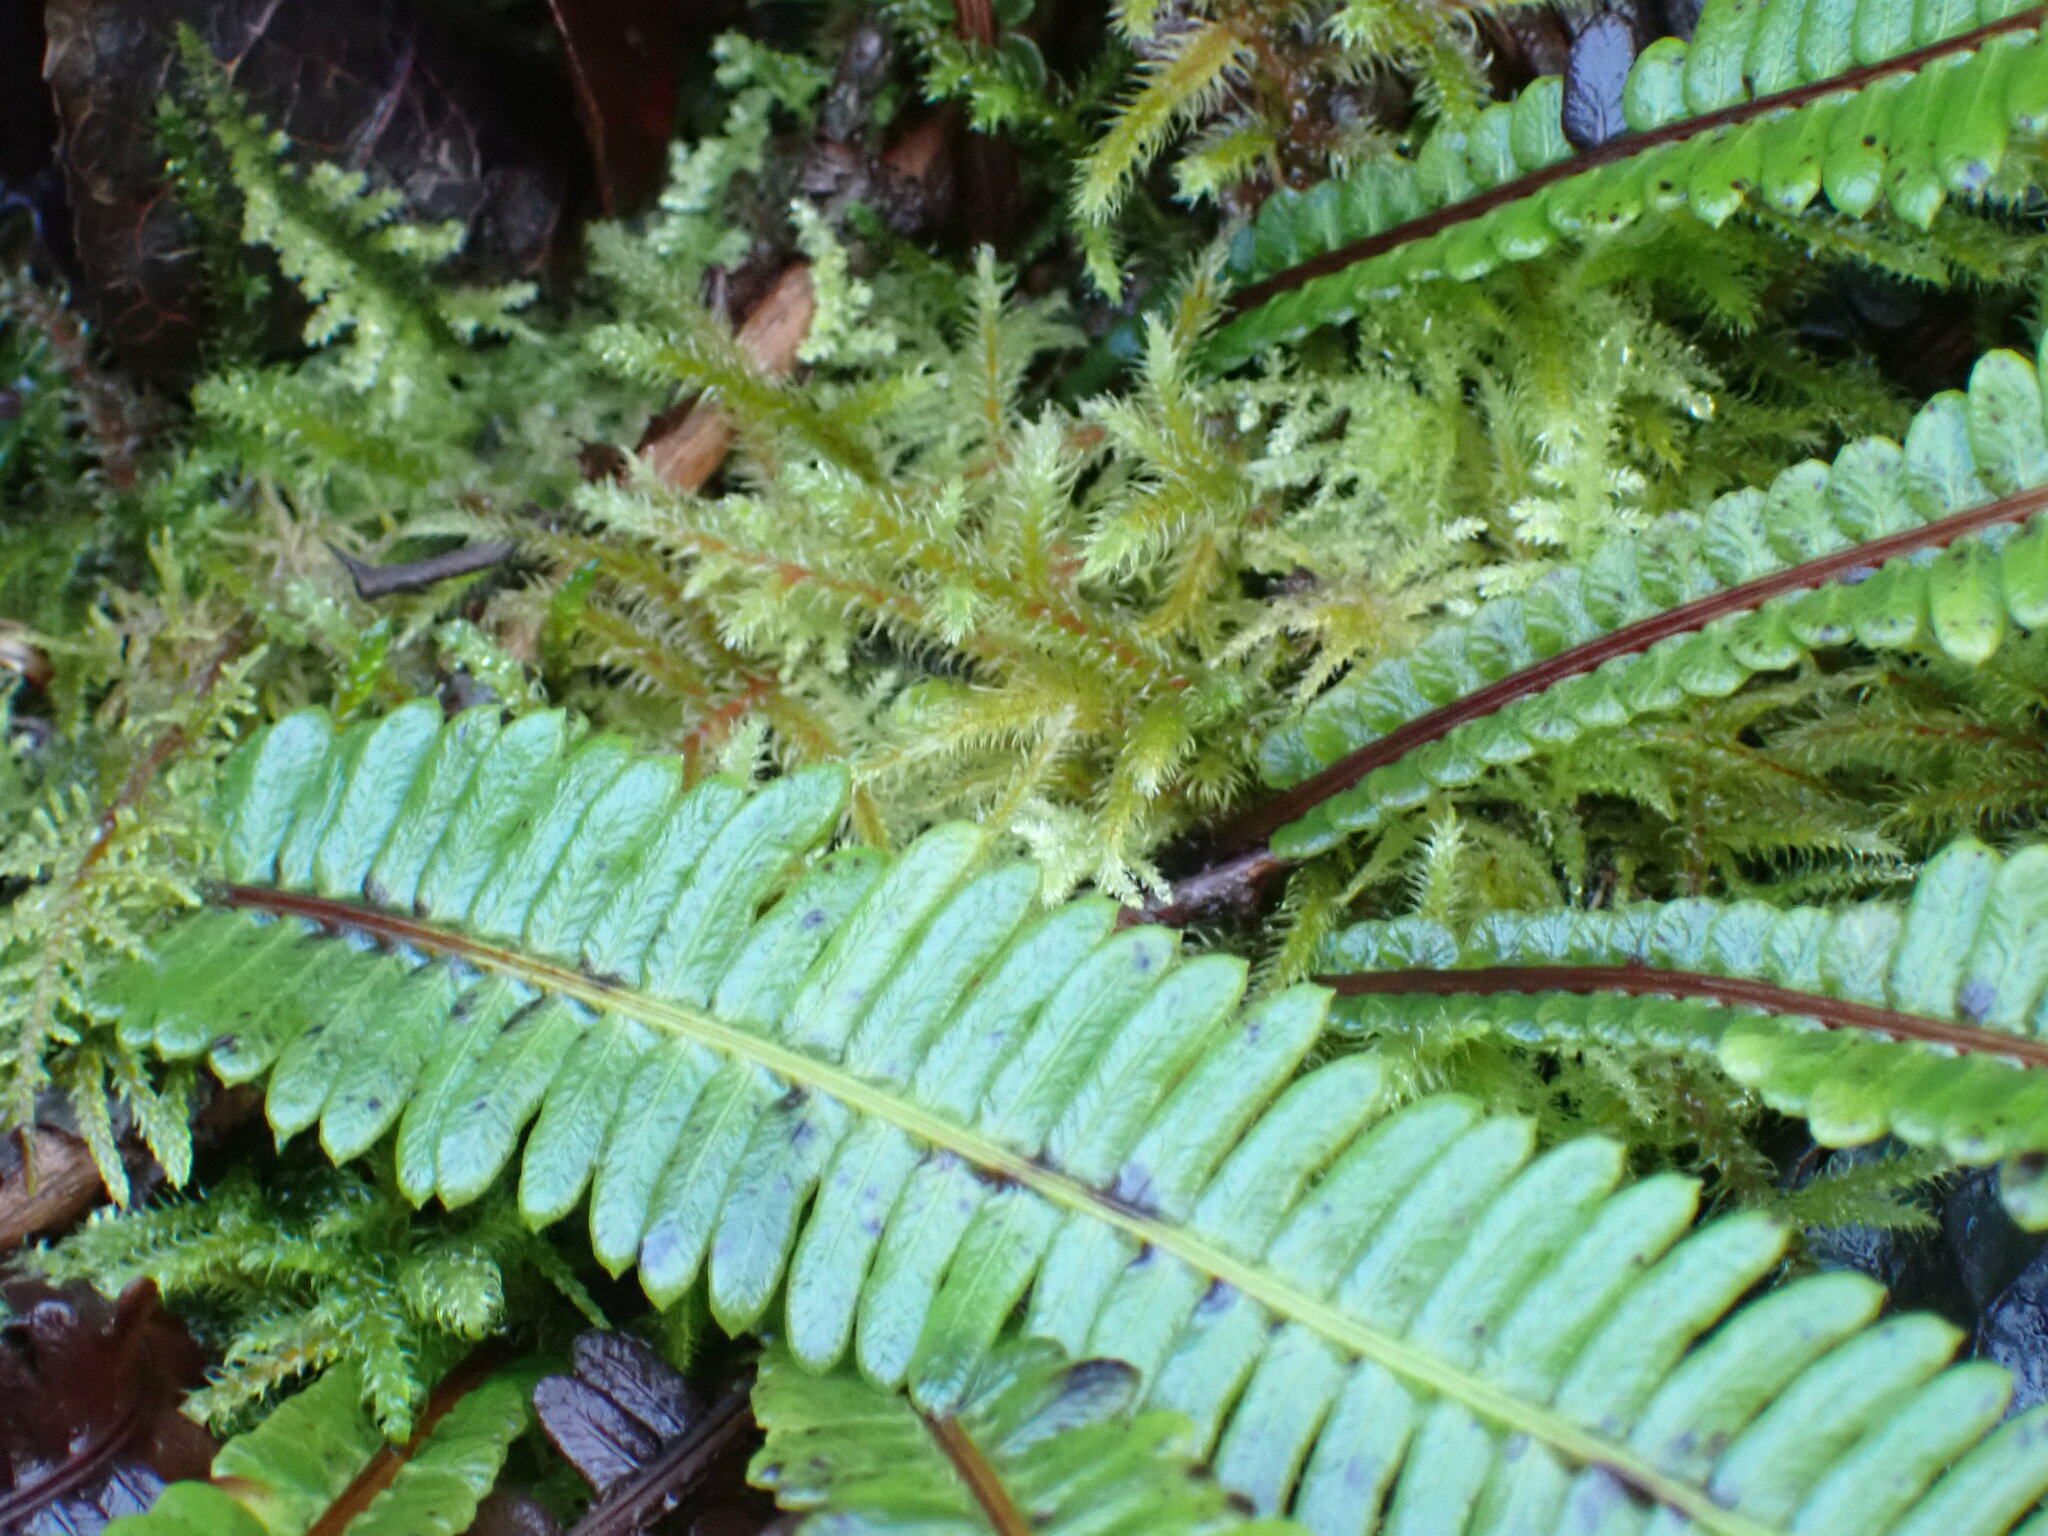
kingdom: Plantae
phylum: Tracheophyta
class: Polypodiopsida
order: Polypodiales
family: Blechnaceae
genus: Struthiopteris
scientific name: Struthiopteris spicant
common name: Deer fern
